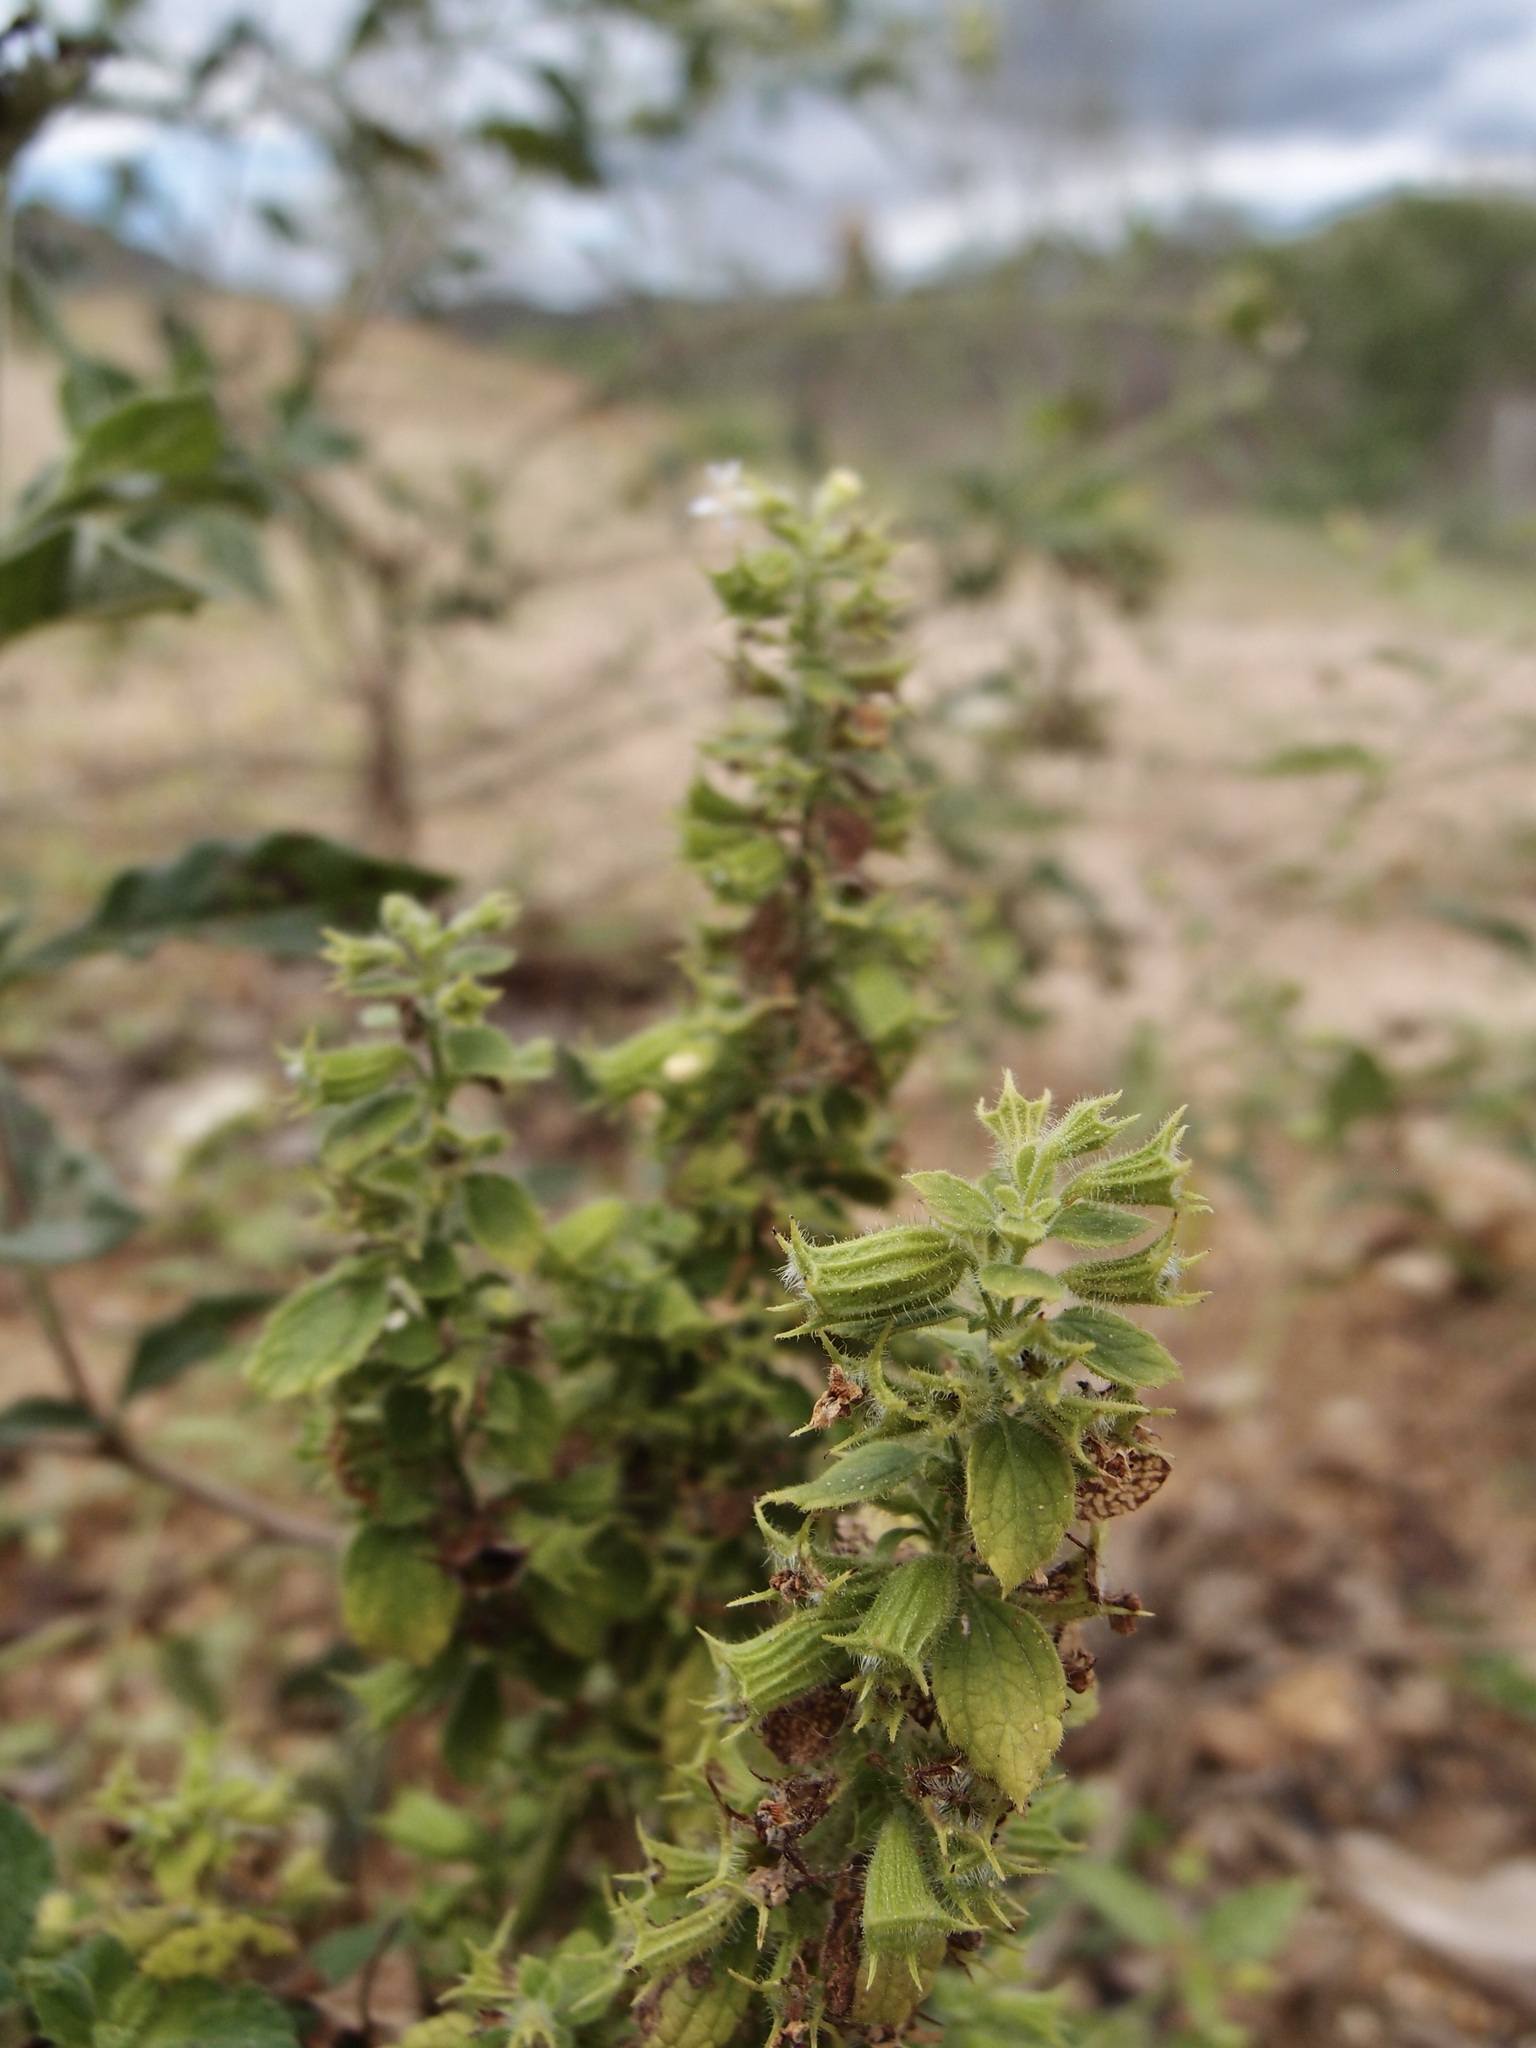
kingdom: Plantae
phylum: Tracheophyta
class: Magnoliopsida
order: Lamiales
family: Lamiaceae
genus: Mesosphaerum
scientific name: Mesosphaerum suaveolens
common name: Pignut
